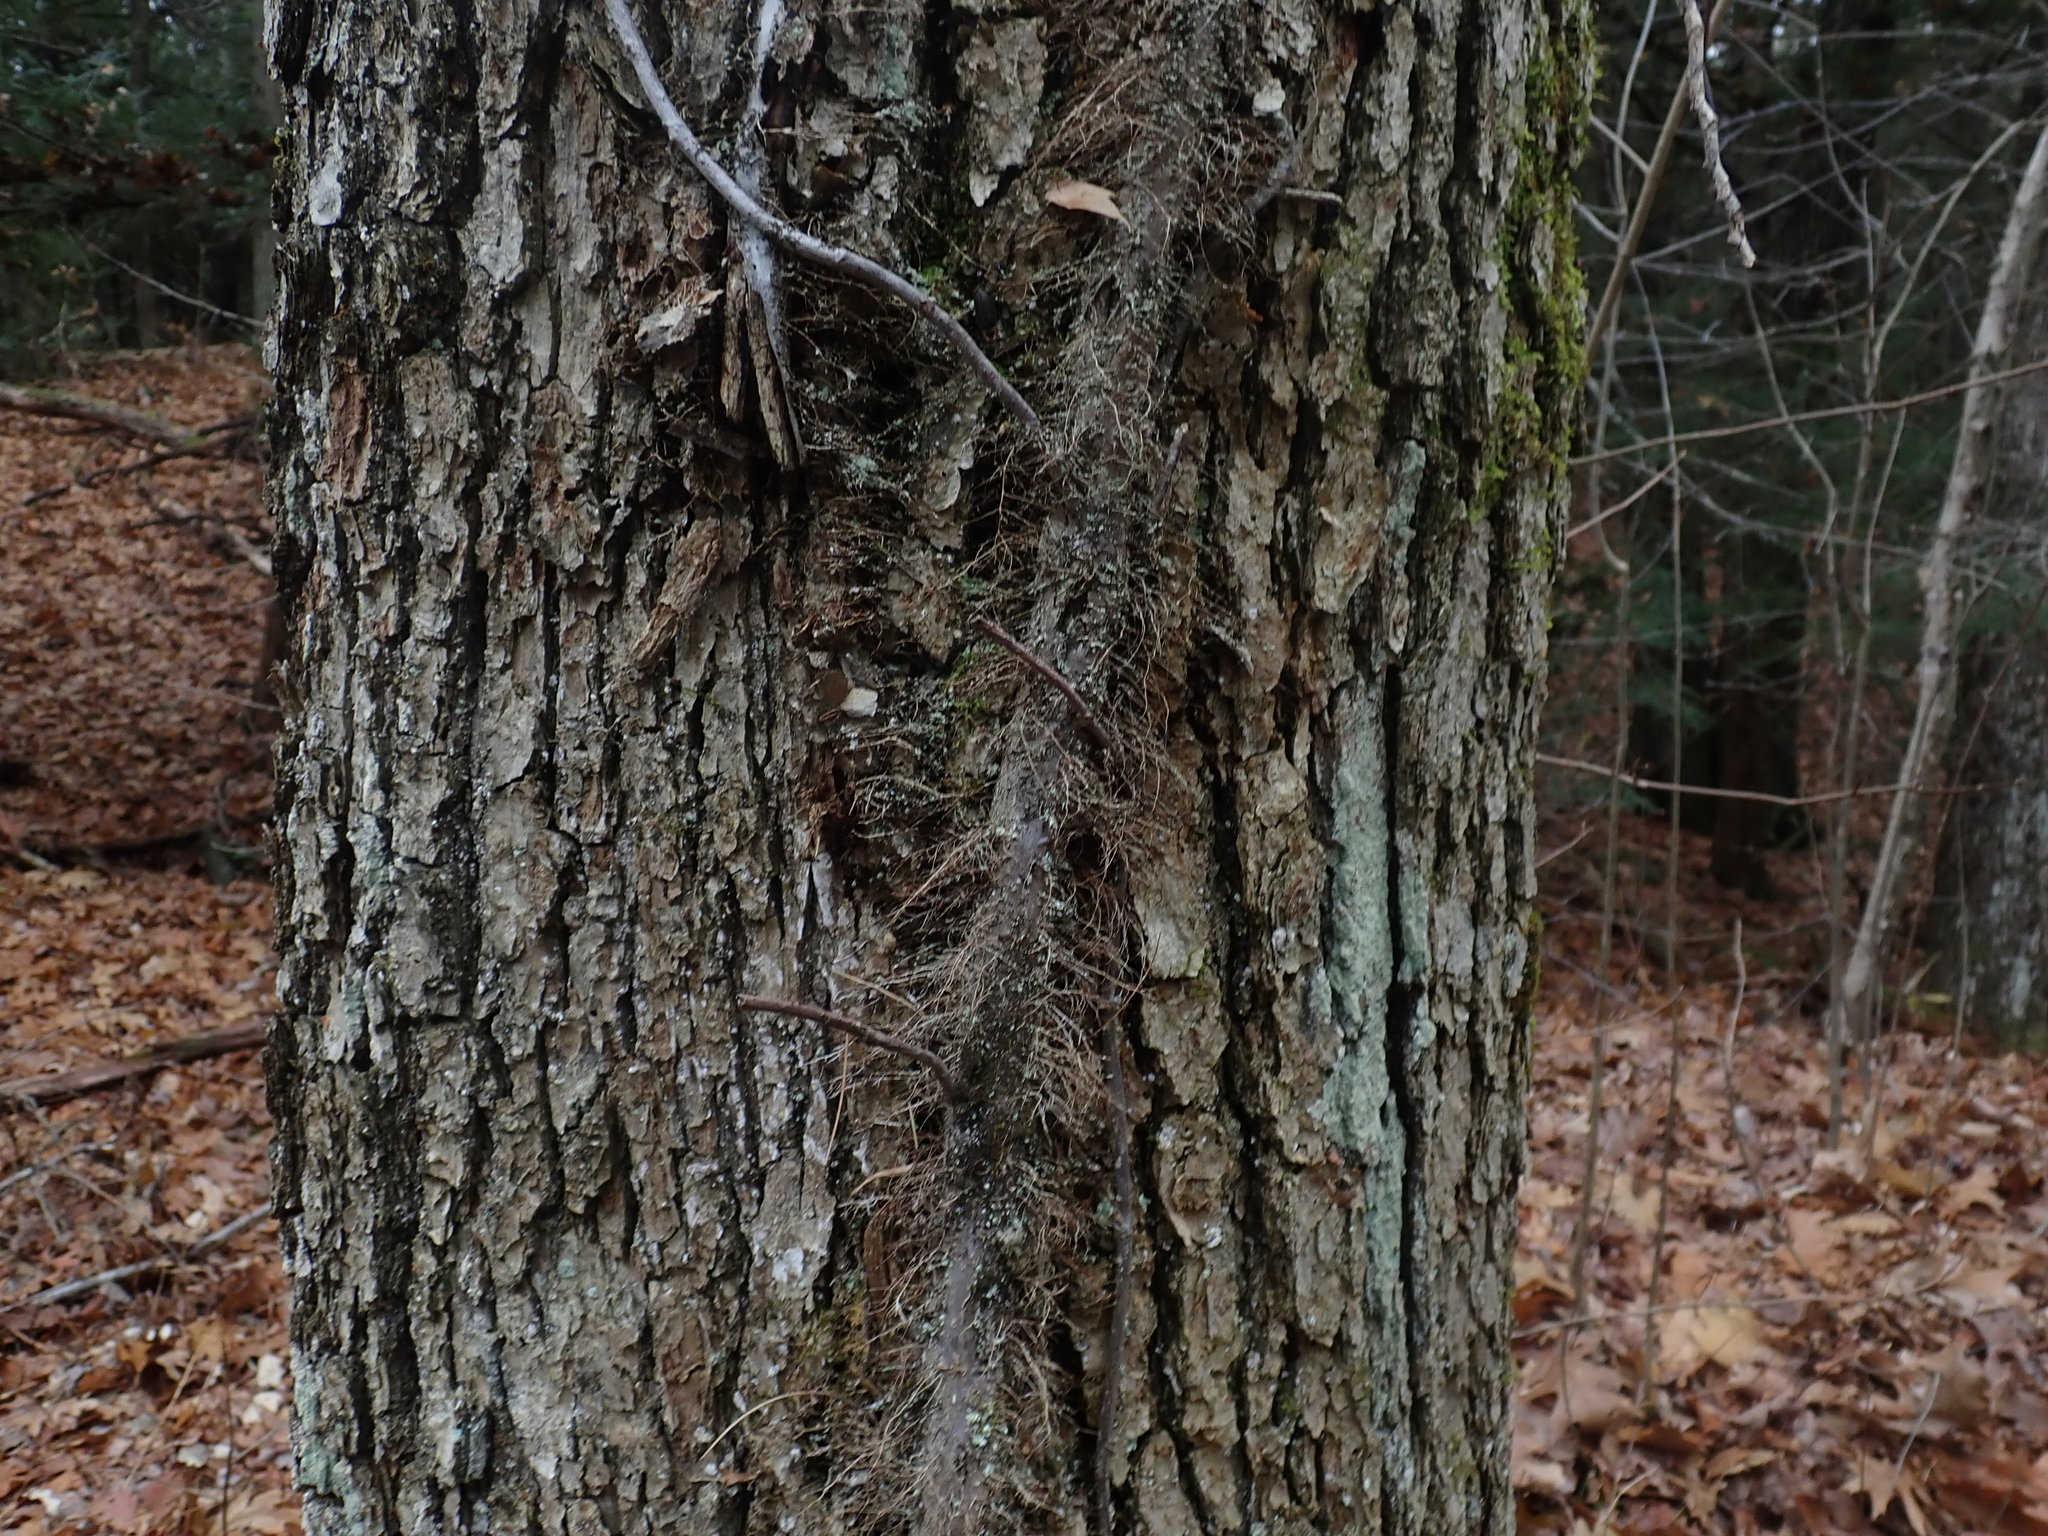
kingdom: Plantae
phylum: Tracheophyta
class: Magnoliopsida
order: Sapindales
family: Anacardiaceae
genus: Toxicodendron
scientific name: Toxicodendron radicans
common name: Poison ivy
